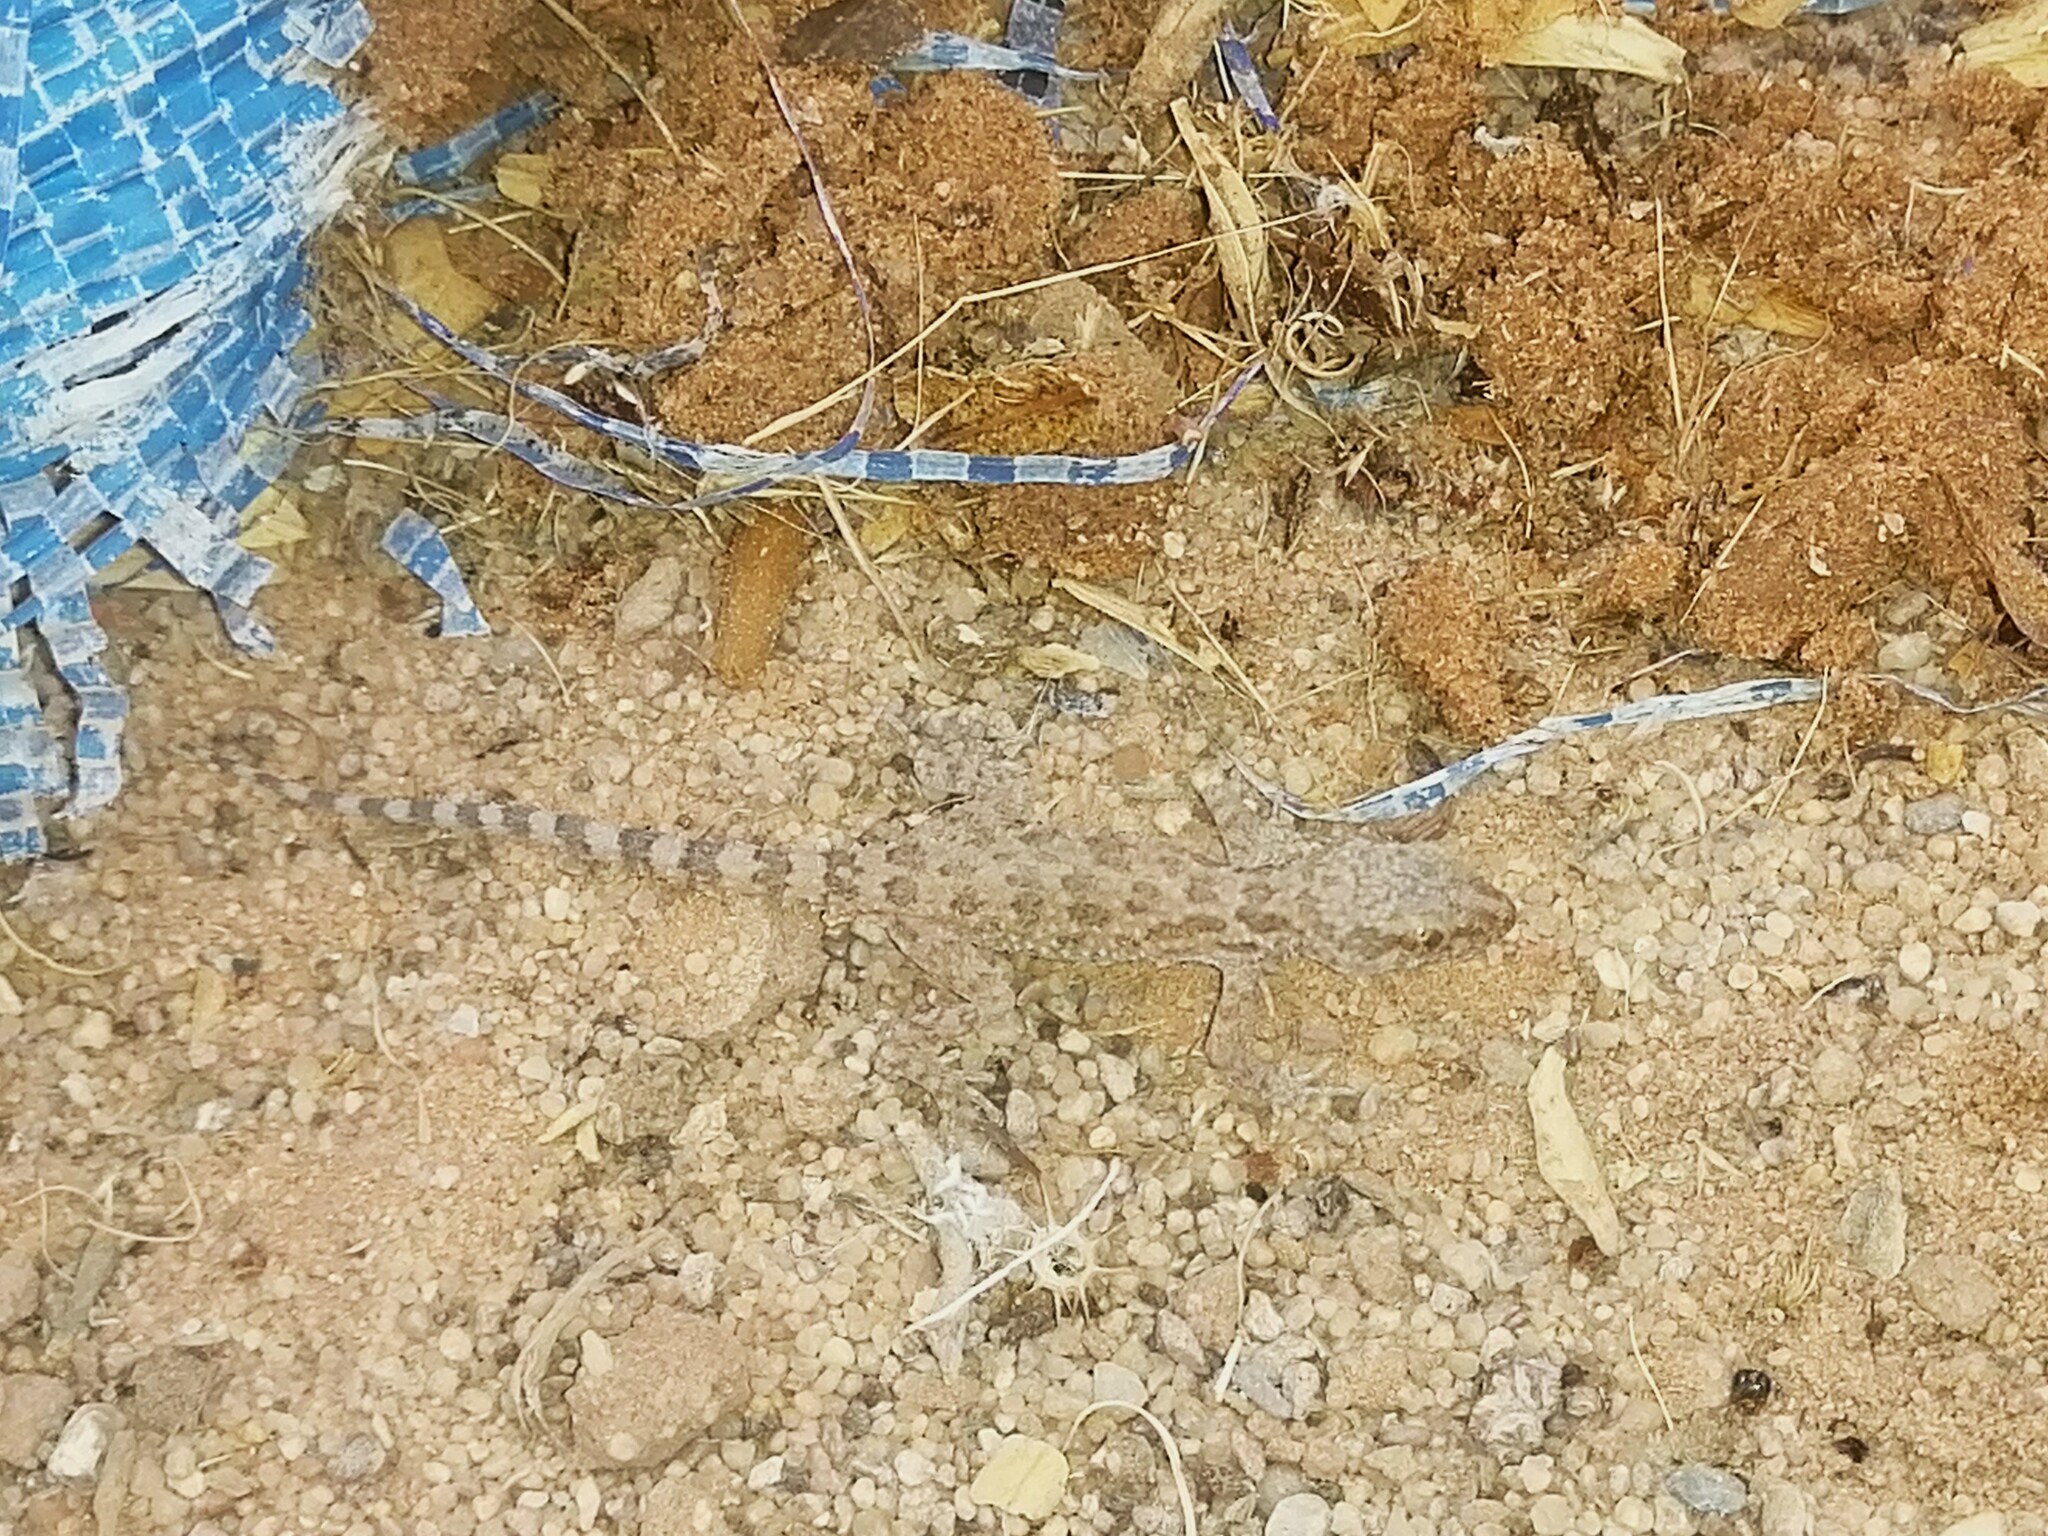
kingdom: Animalia
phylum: Chordata
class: Squamata
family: Gekkonidae
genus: Bunopus
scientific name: Bunopus tuberculatus
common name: Southern tuberculated gecko
